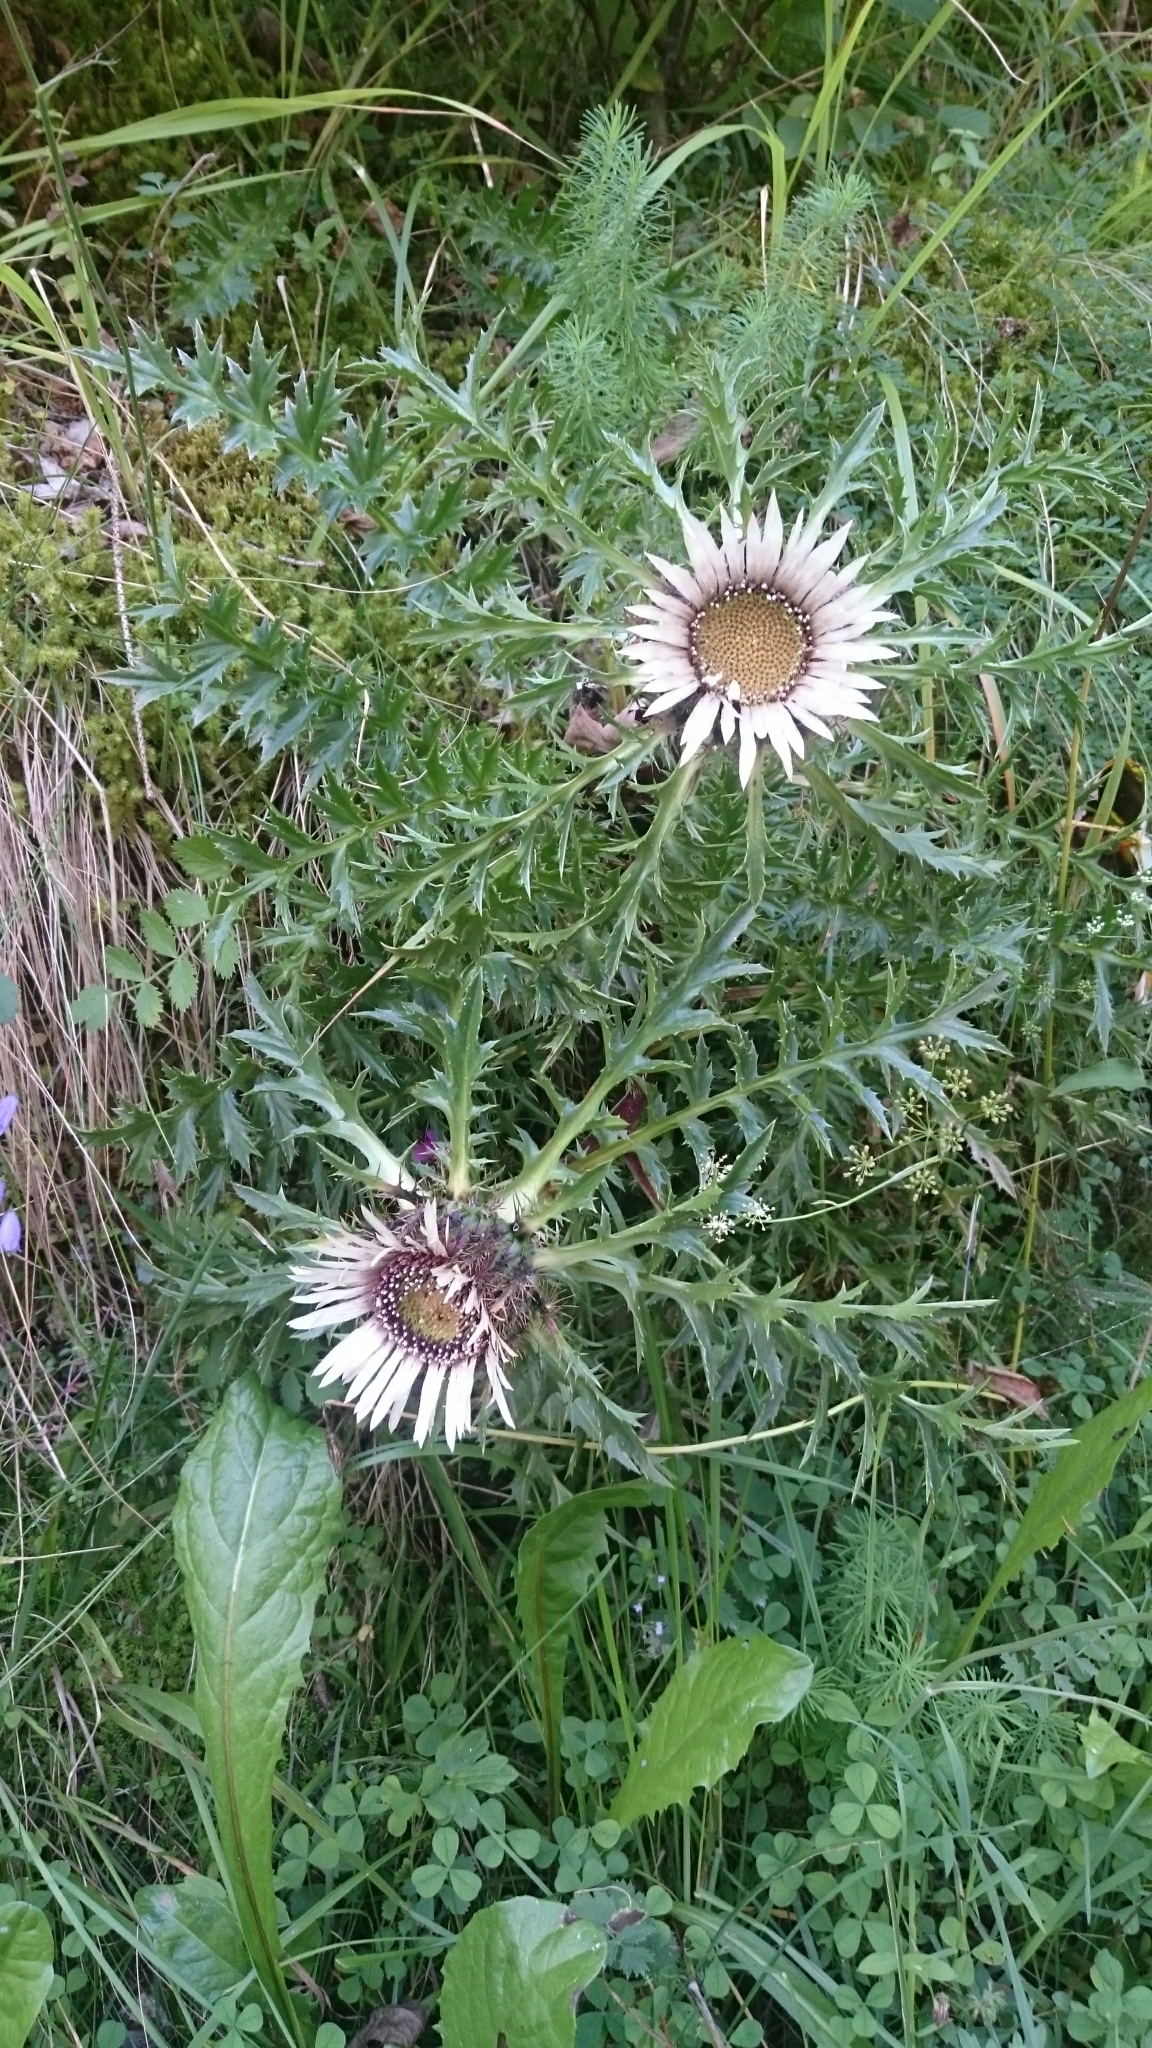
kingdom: Plantae
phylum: Tracheophyta
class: Magnoliopsida
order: Asterales
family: Asteraceae
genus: Carlina
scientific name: Carlina acaulis
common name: Stemless carline thistle
